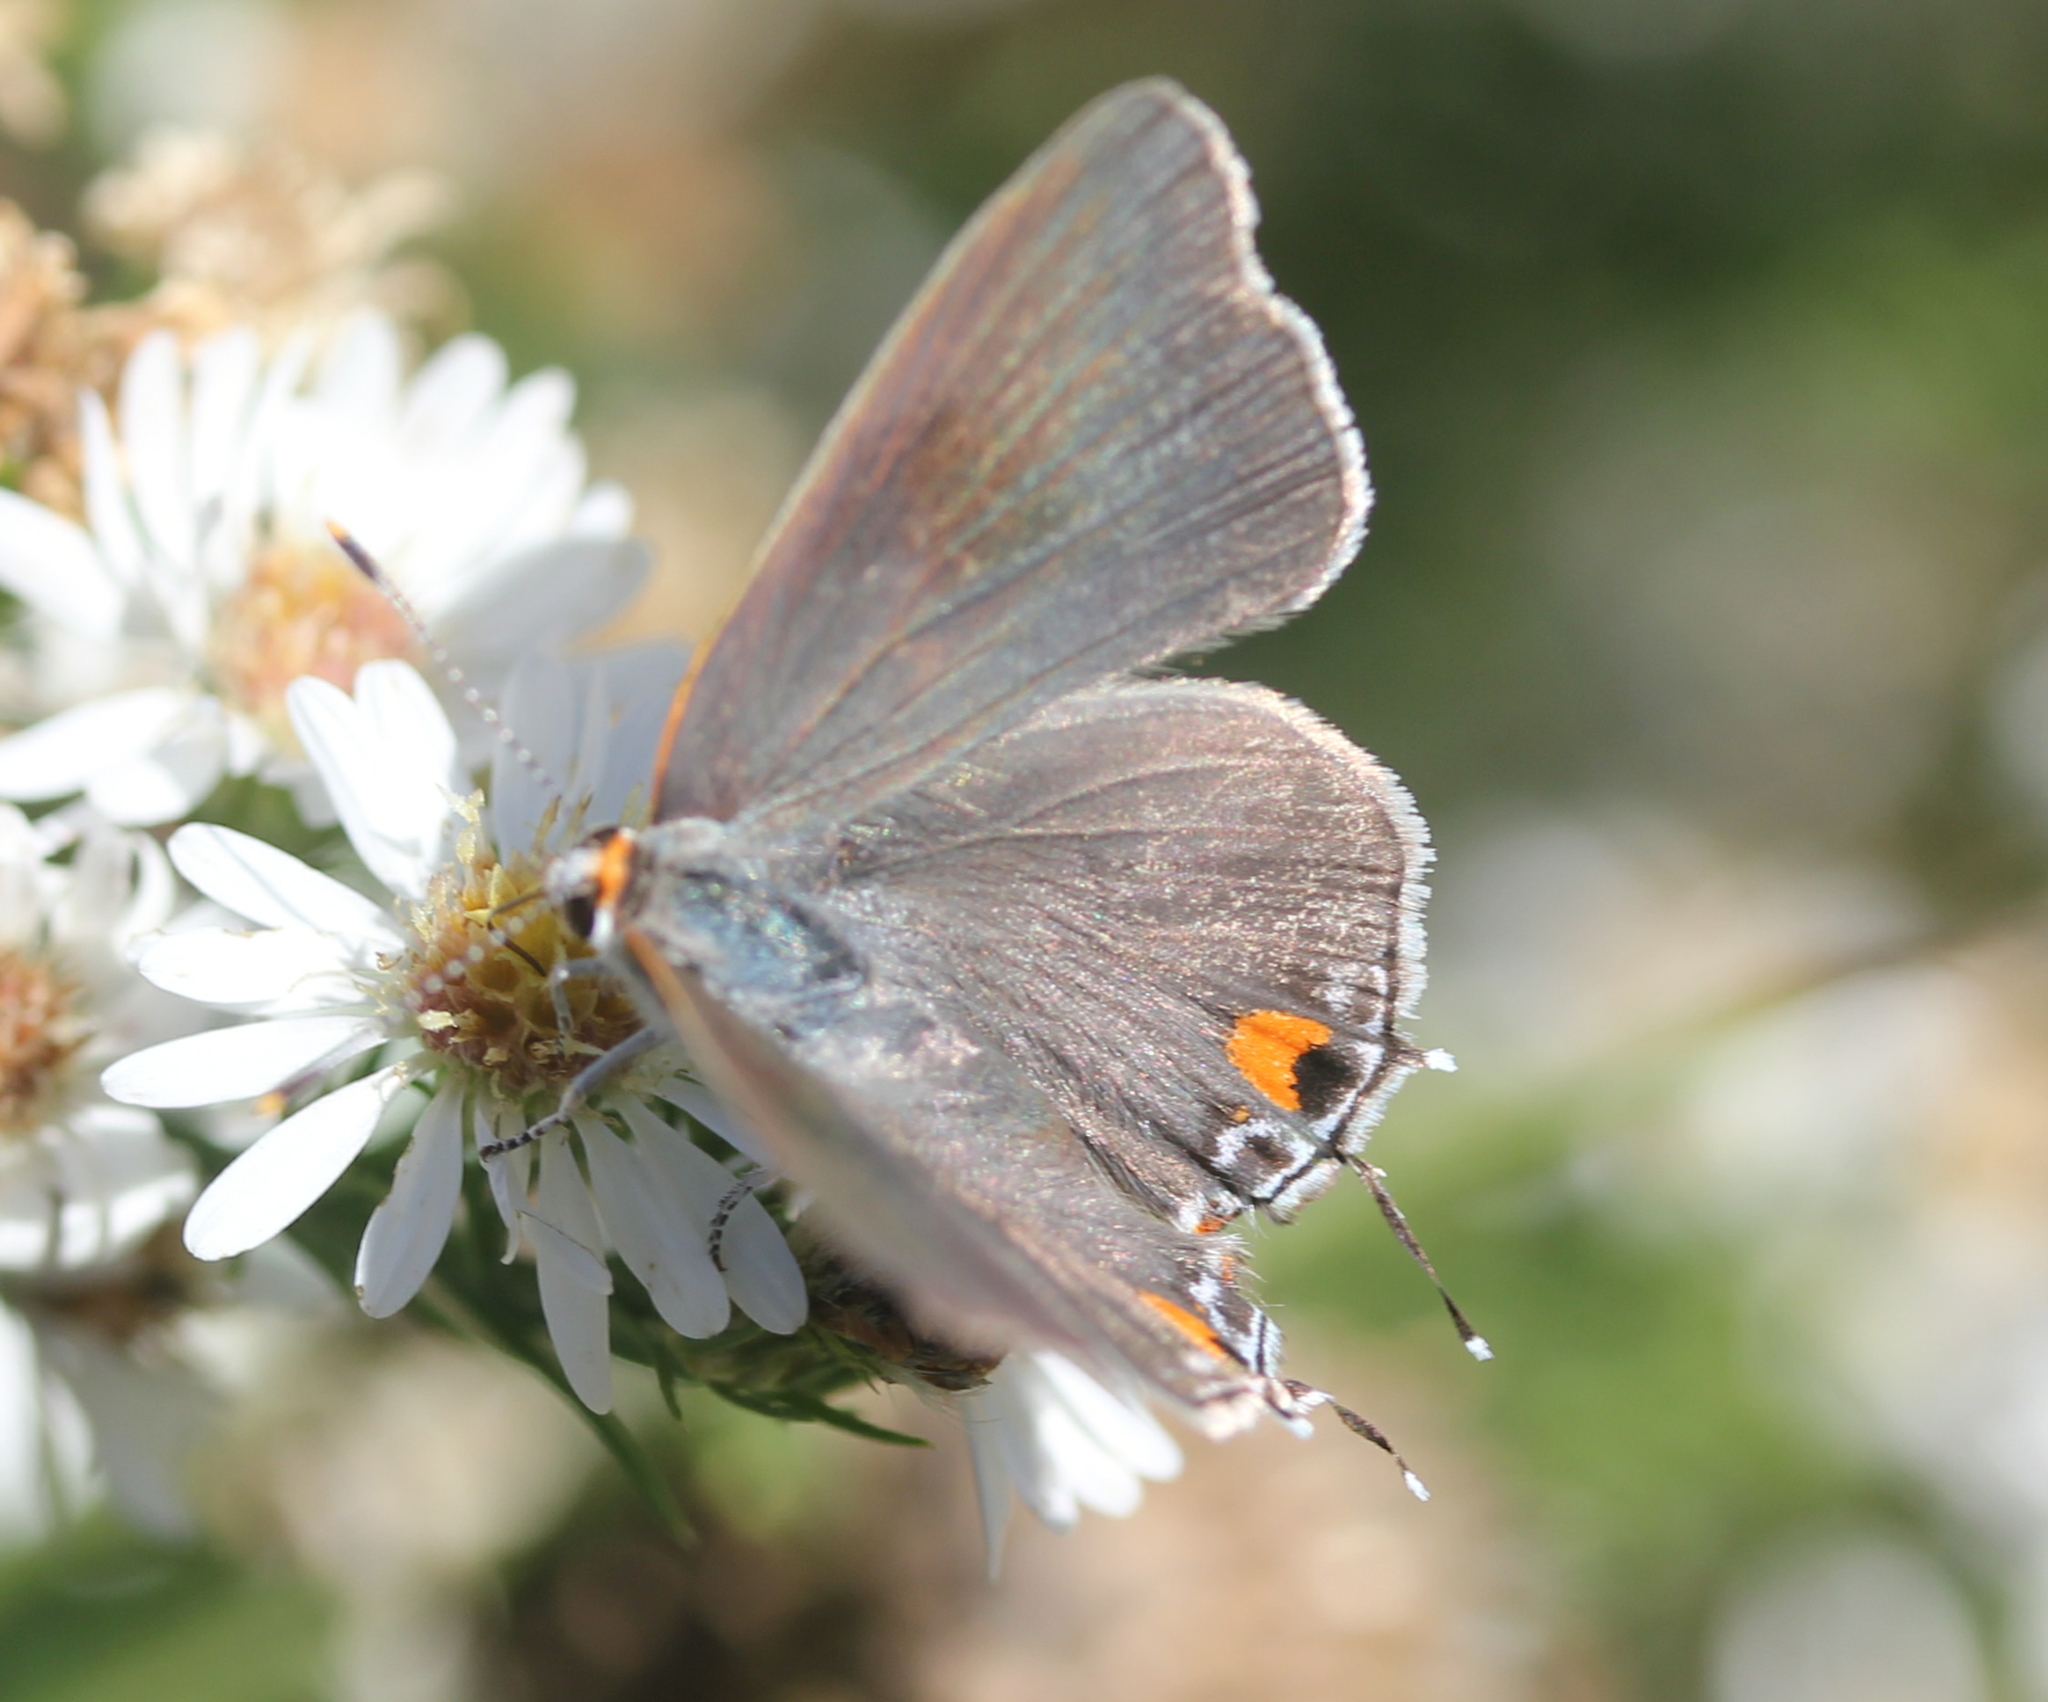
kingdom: Animalia
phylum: Arthropoda
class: Insecta
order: Lepidoptera
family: Lycaenidae
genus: Strymon
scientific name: Strymon melinus
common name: Gray hairstreak
